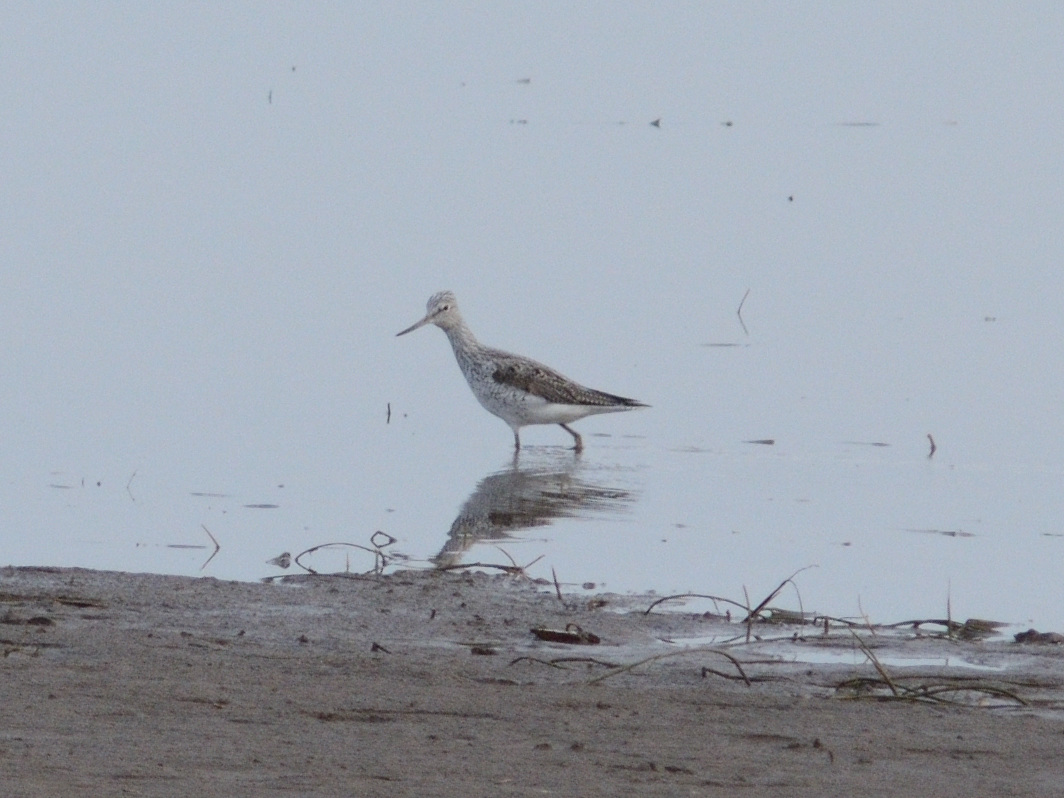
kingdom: Animalia
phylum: Chordata
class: Aves
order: Charadriiformes
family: Scolopacidae
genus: Tringa
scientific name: Tringa nebularia
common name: Common greenshank
